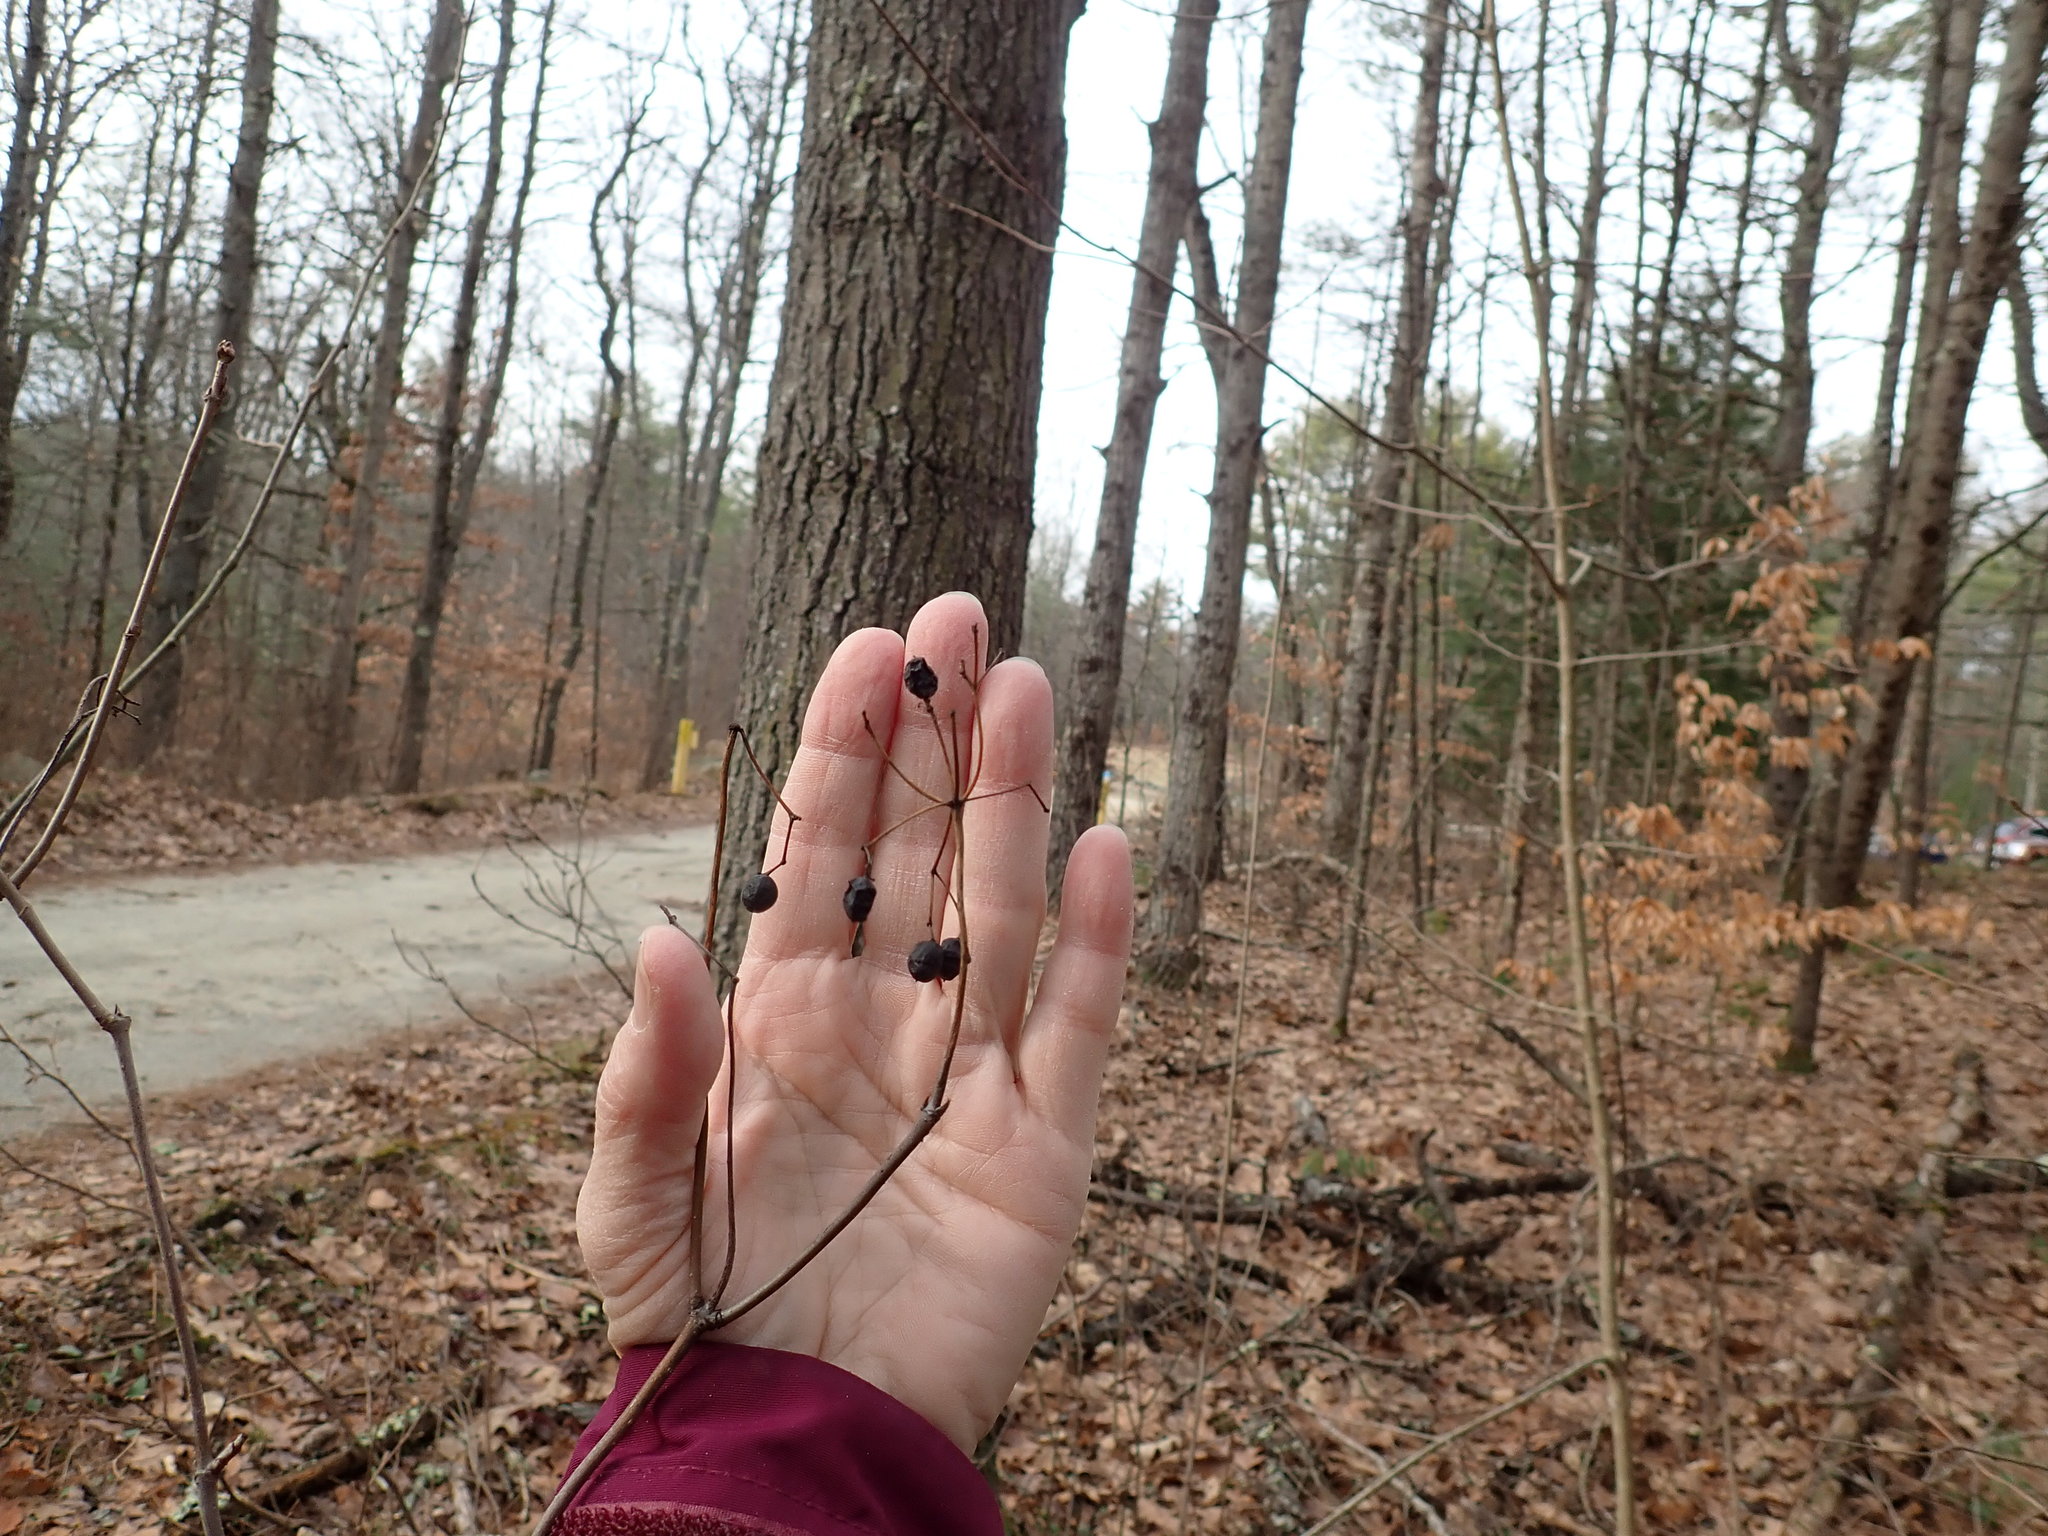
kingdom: Plantae
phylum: Tracheophyta
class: Magnoliopsida
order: Dipsacales
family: Viburnaceae
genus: Viburnum
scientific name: Viburnum acerifolium
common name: Dockmackie
